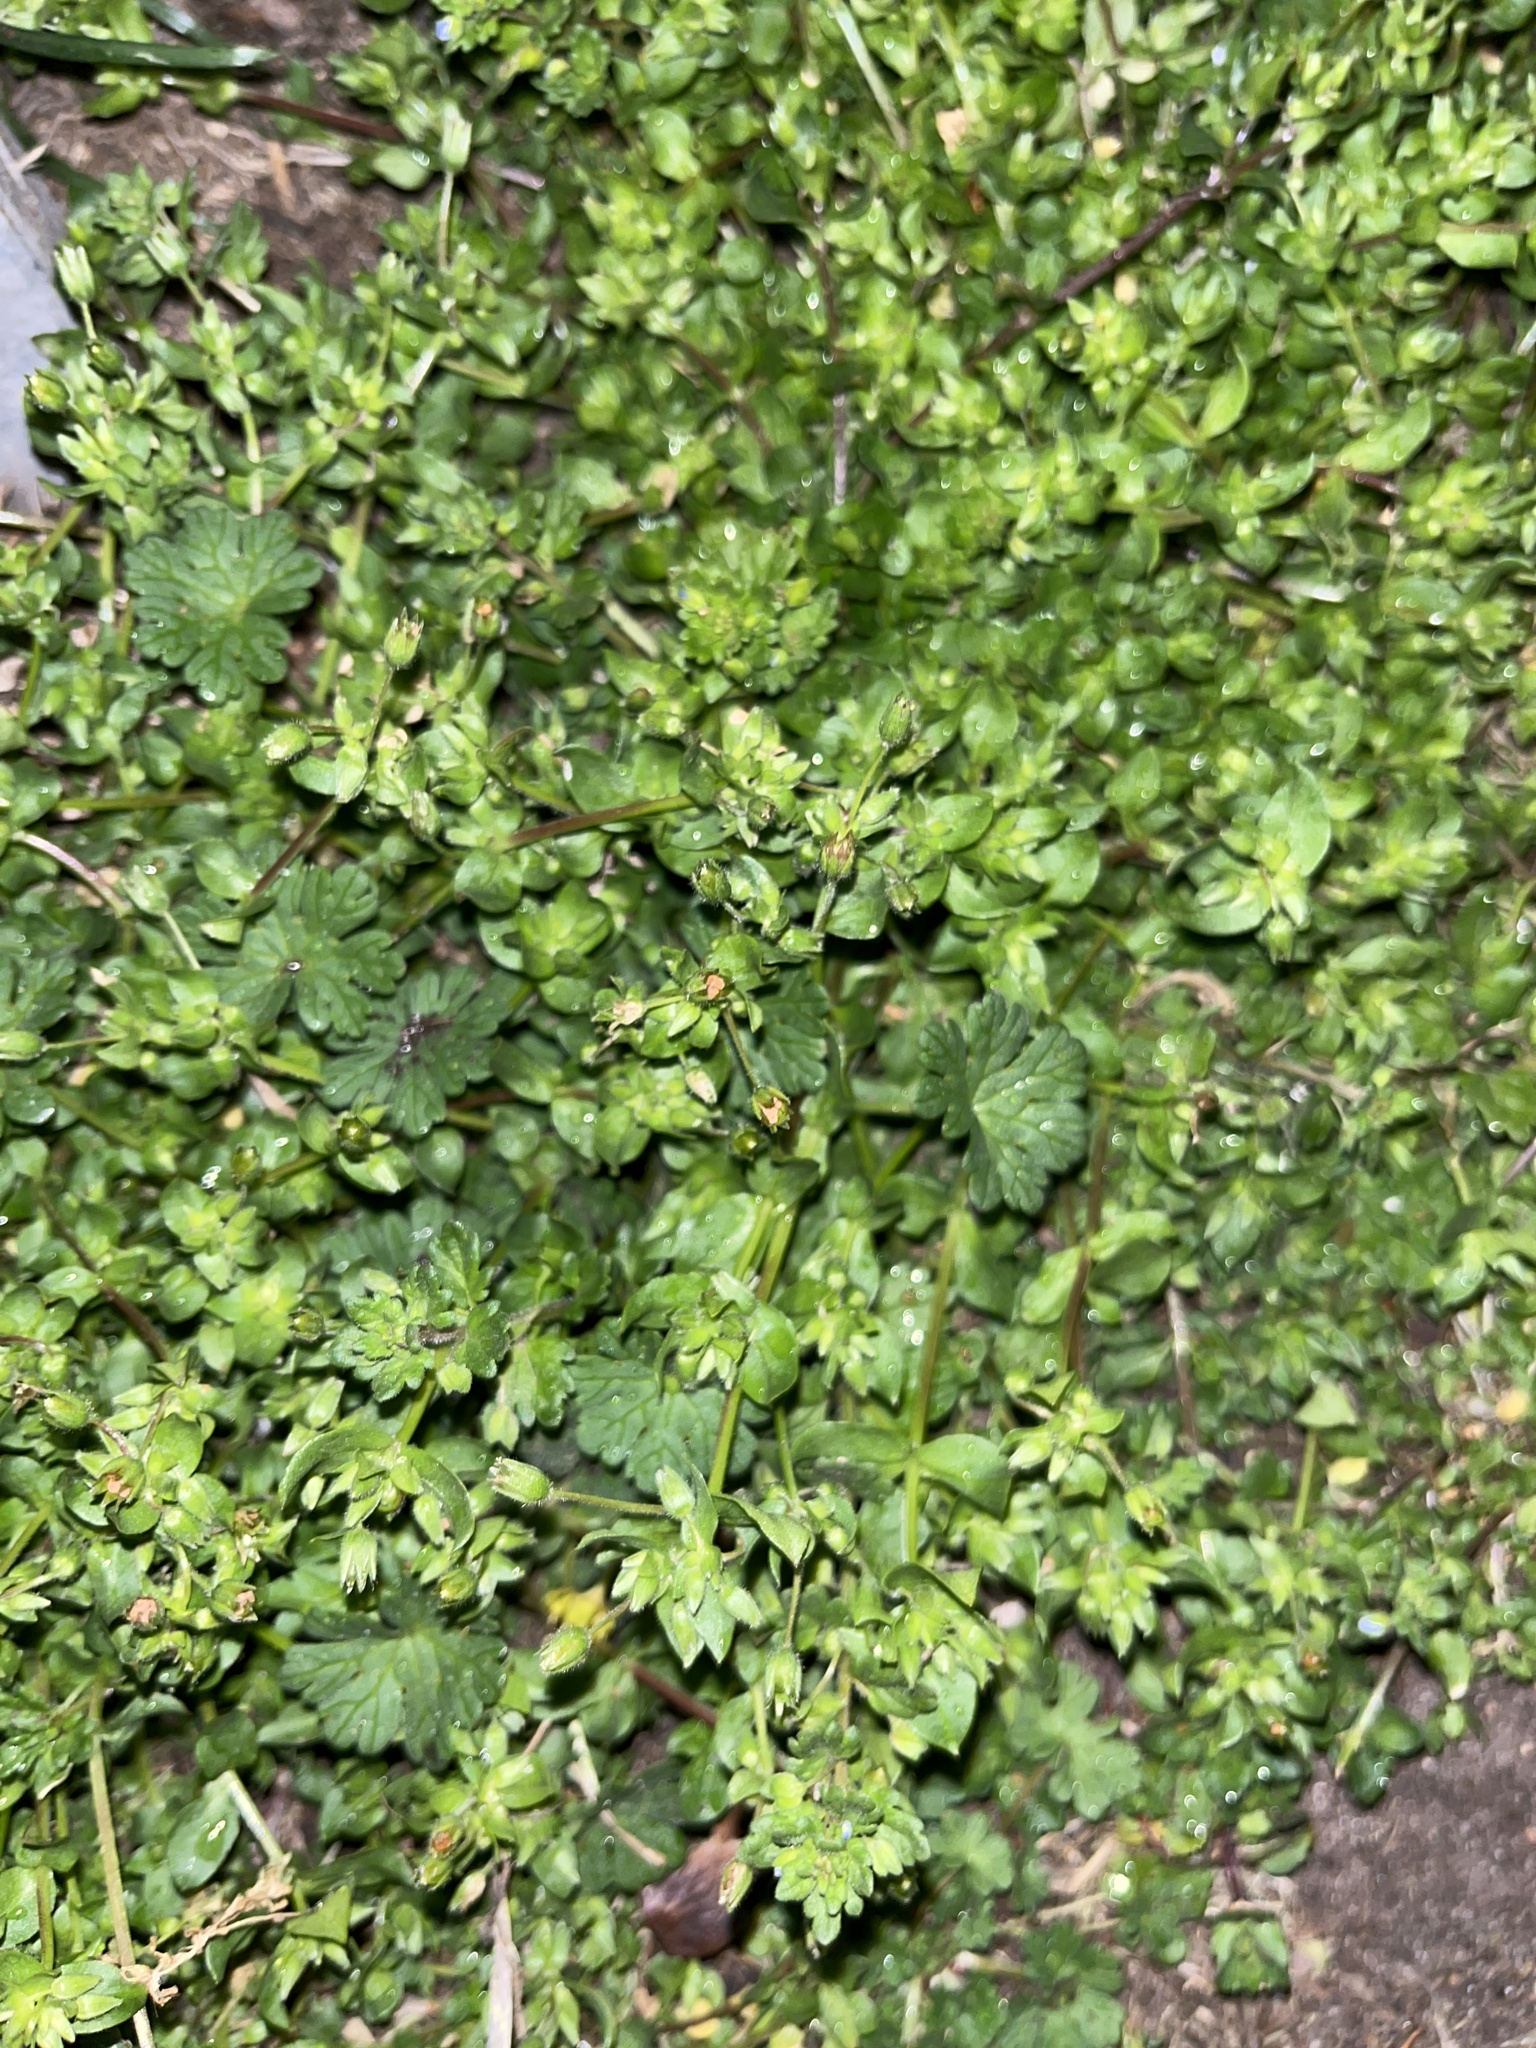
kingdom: Plantae
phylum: Tracheophyta
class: Magnoliopsida
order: Caryophyllales
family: Caryophyllaceae
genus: Stellaria
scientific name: Stellaria media
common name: Common chickweed
